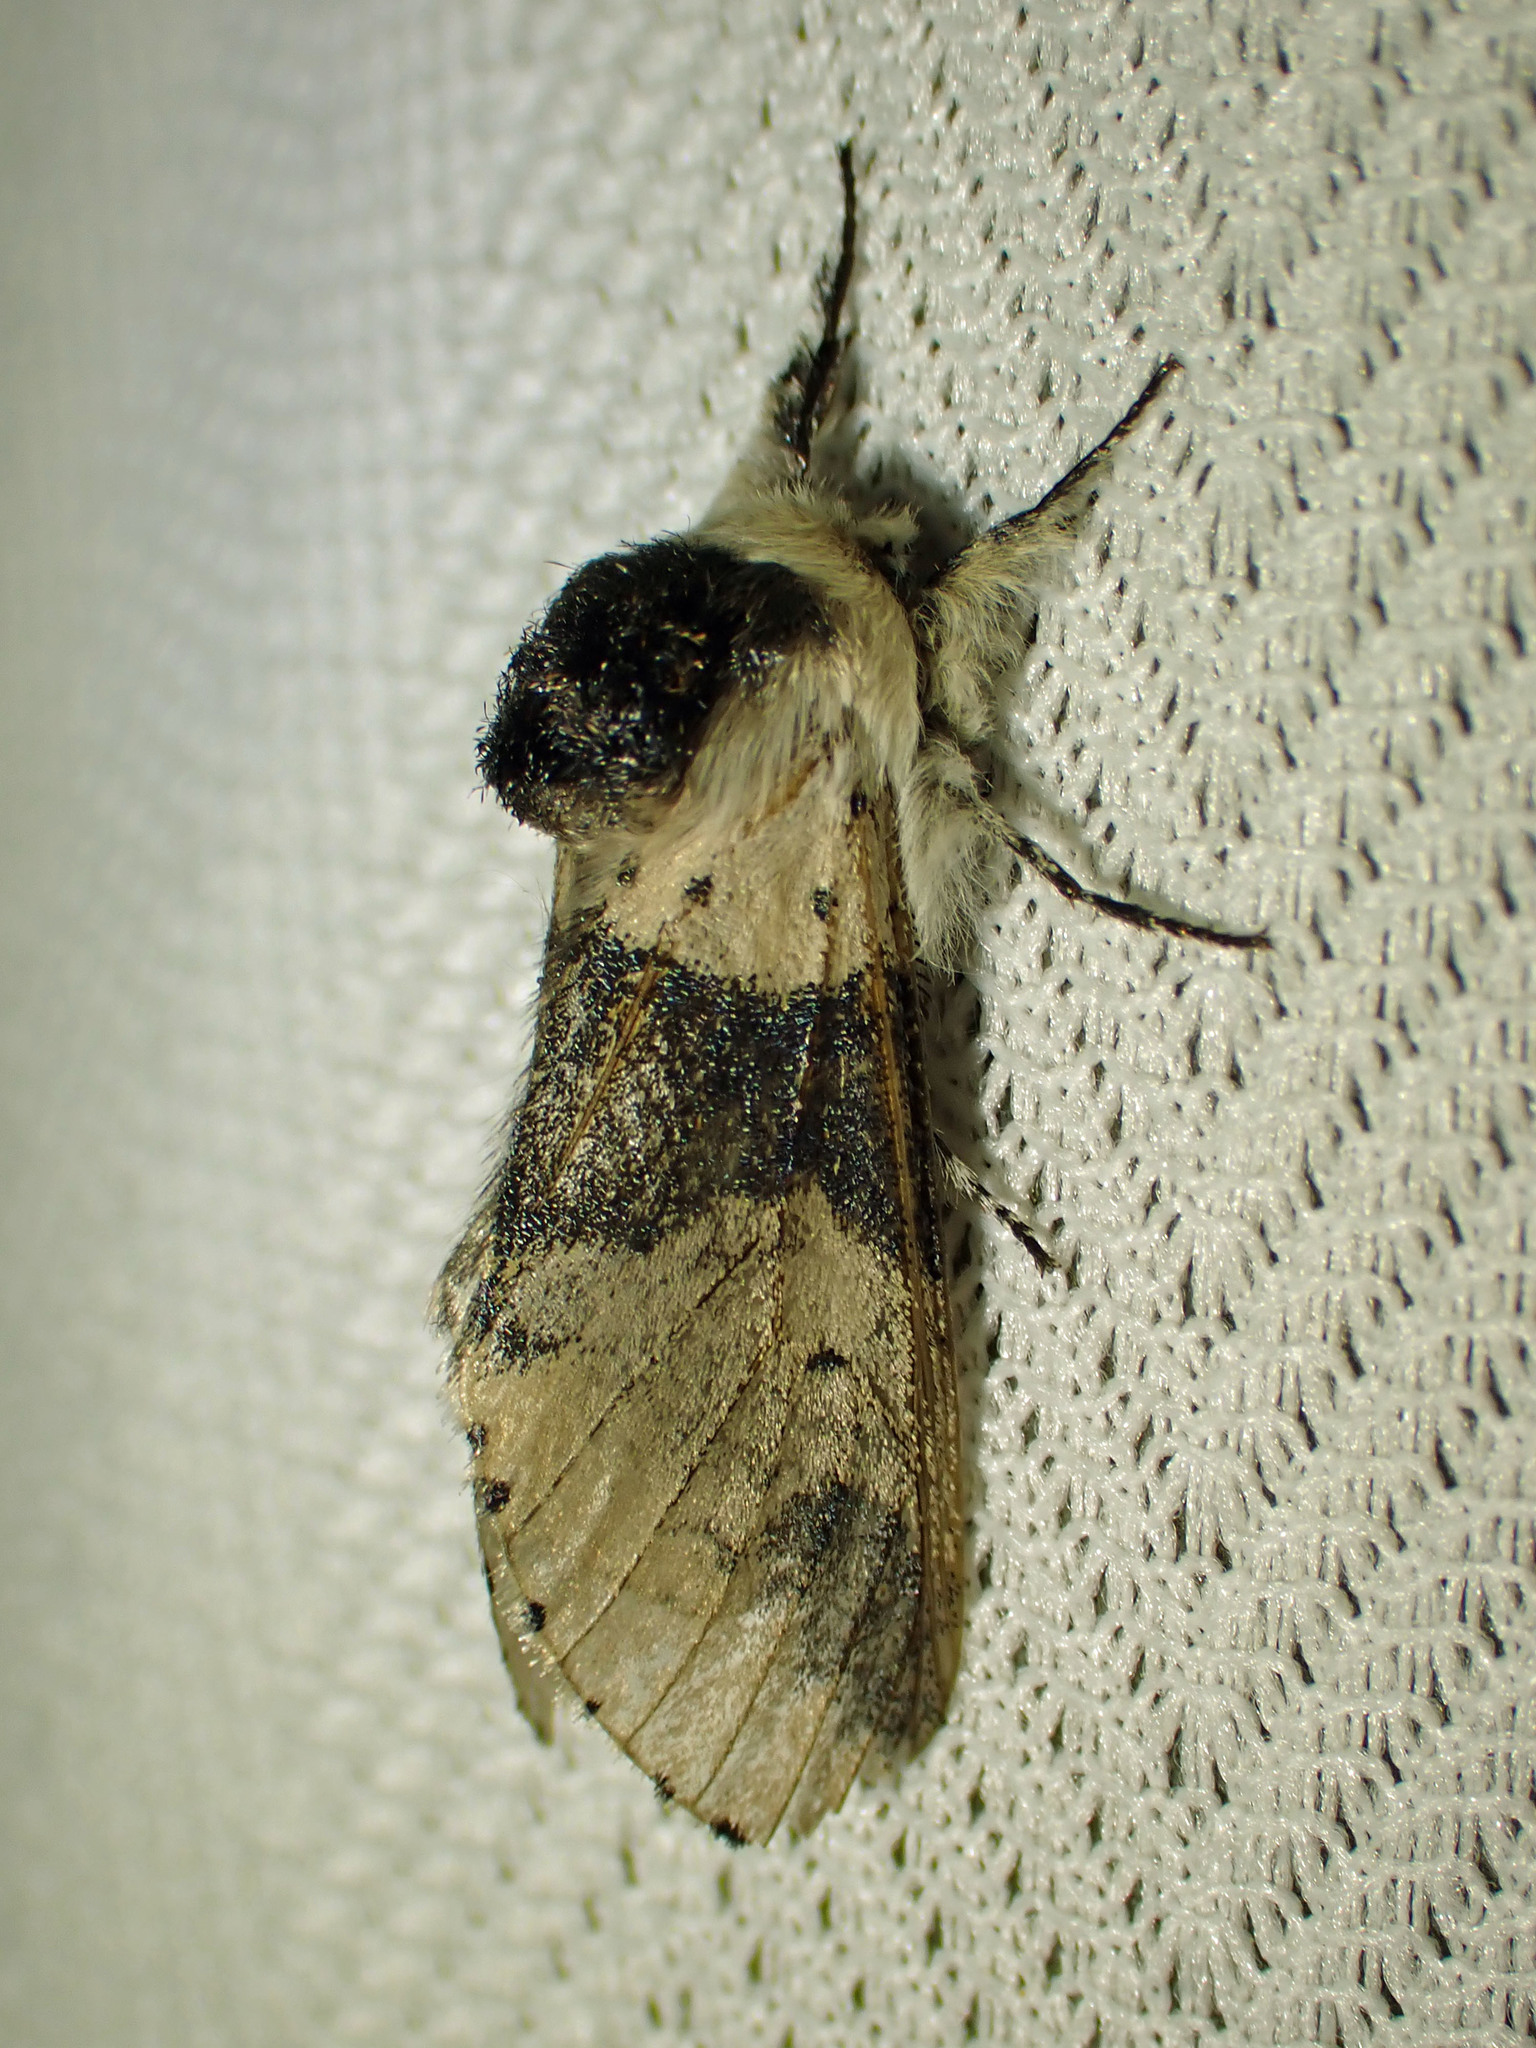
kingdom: Animalia
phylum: Arthropoda
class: Insecta
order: Lepidoptera
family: Notodontidae
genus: Furcula
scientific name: Furcula modesta
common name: Modest furcula moth
